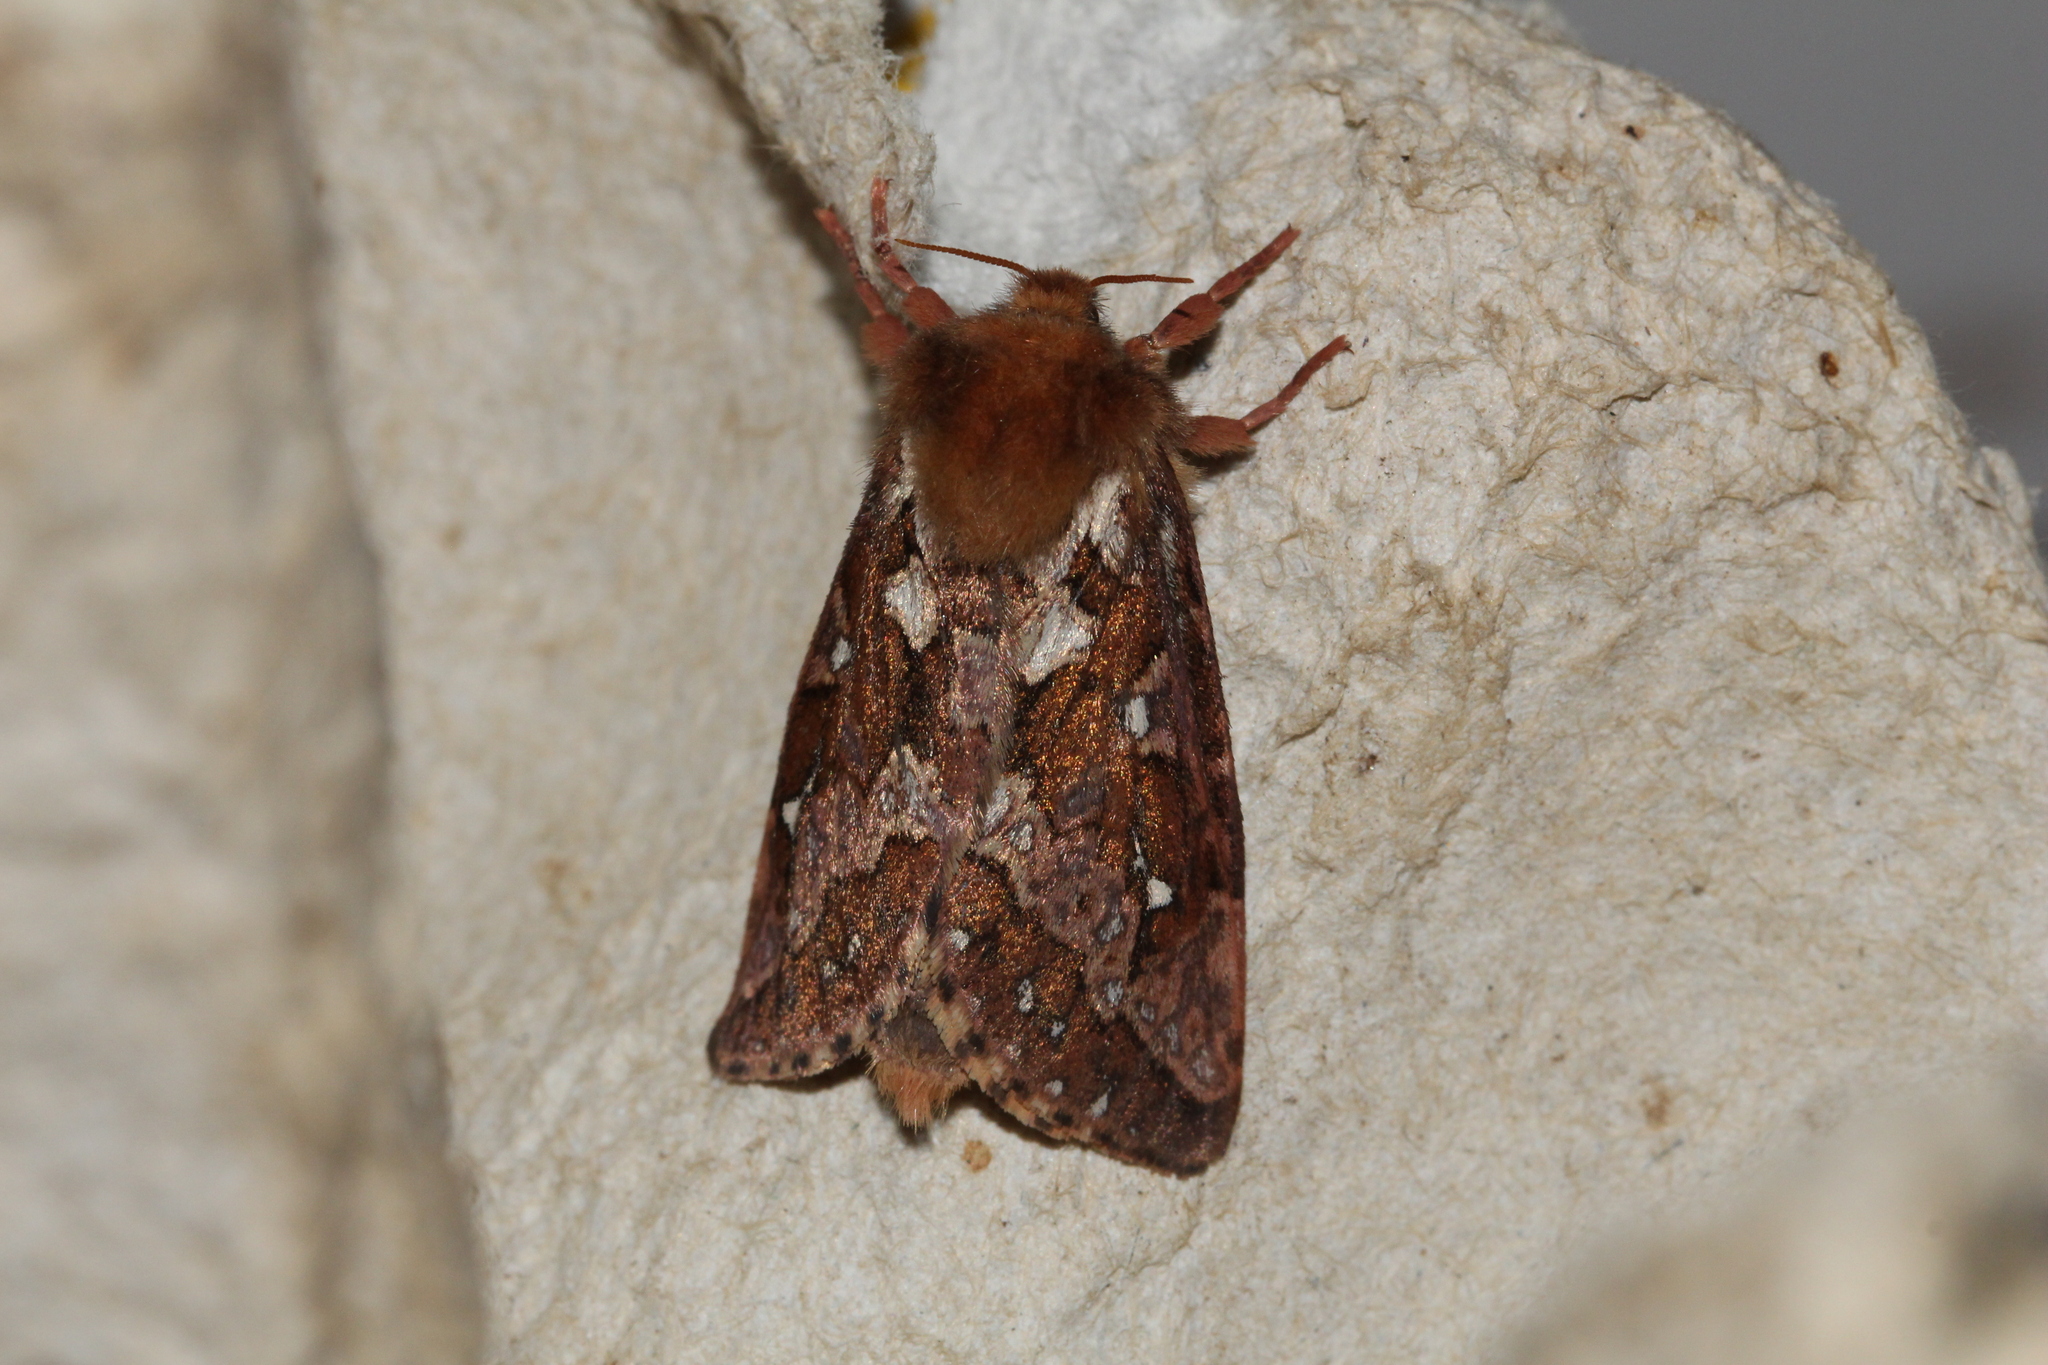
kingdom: Animalia
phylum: Arthropoda
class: Insecta
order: Lepidoptera
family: Hepialidae
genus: Korscheltellus
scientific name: Korscheltellus fusconebulosus
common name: Map-winged swift
